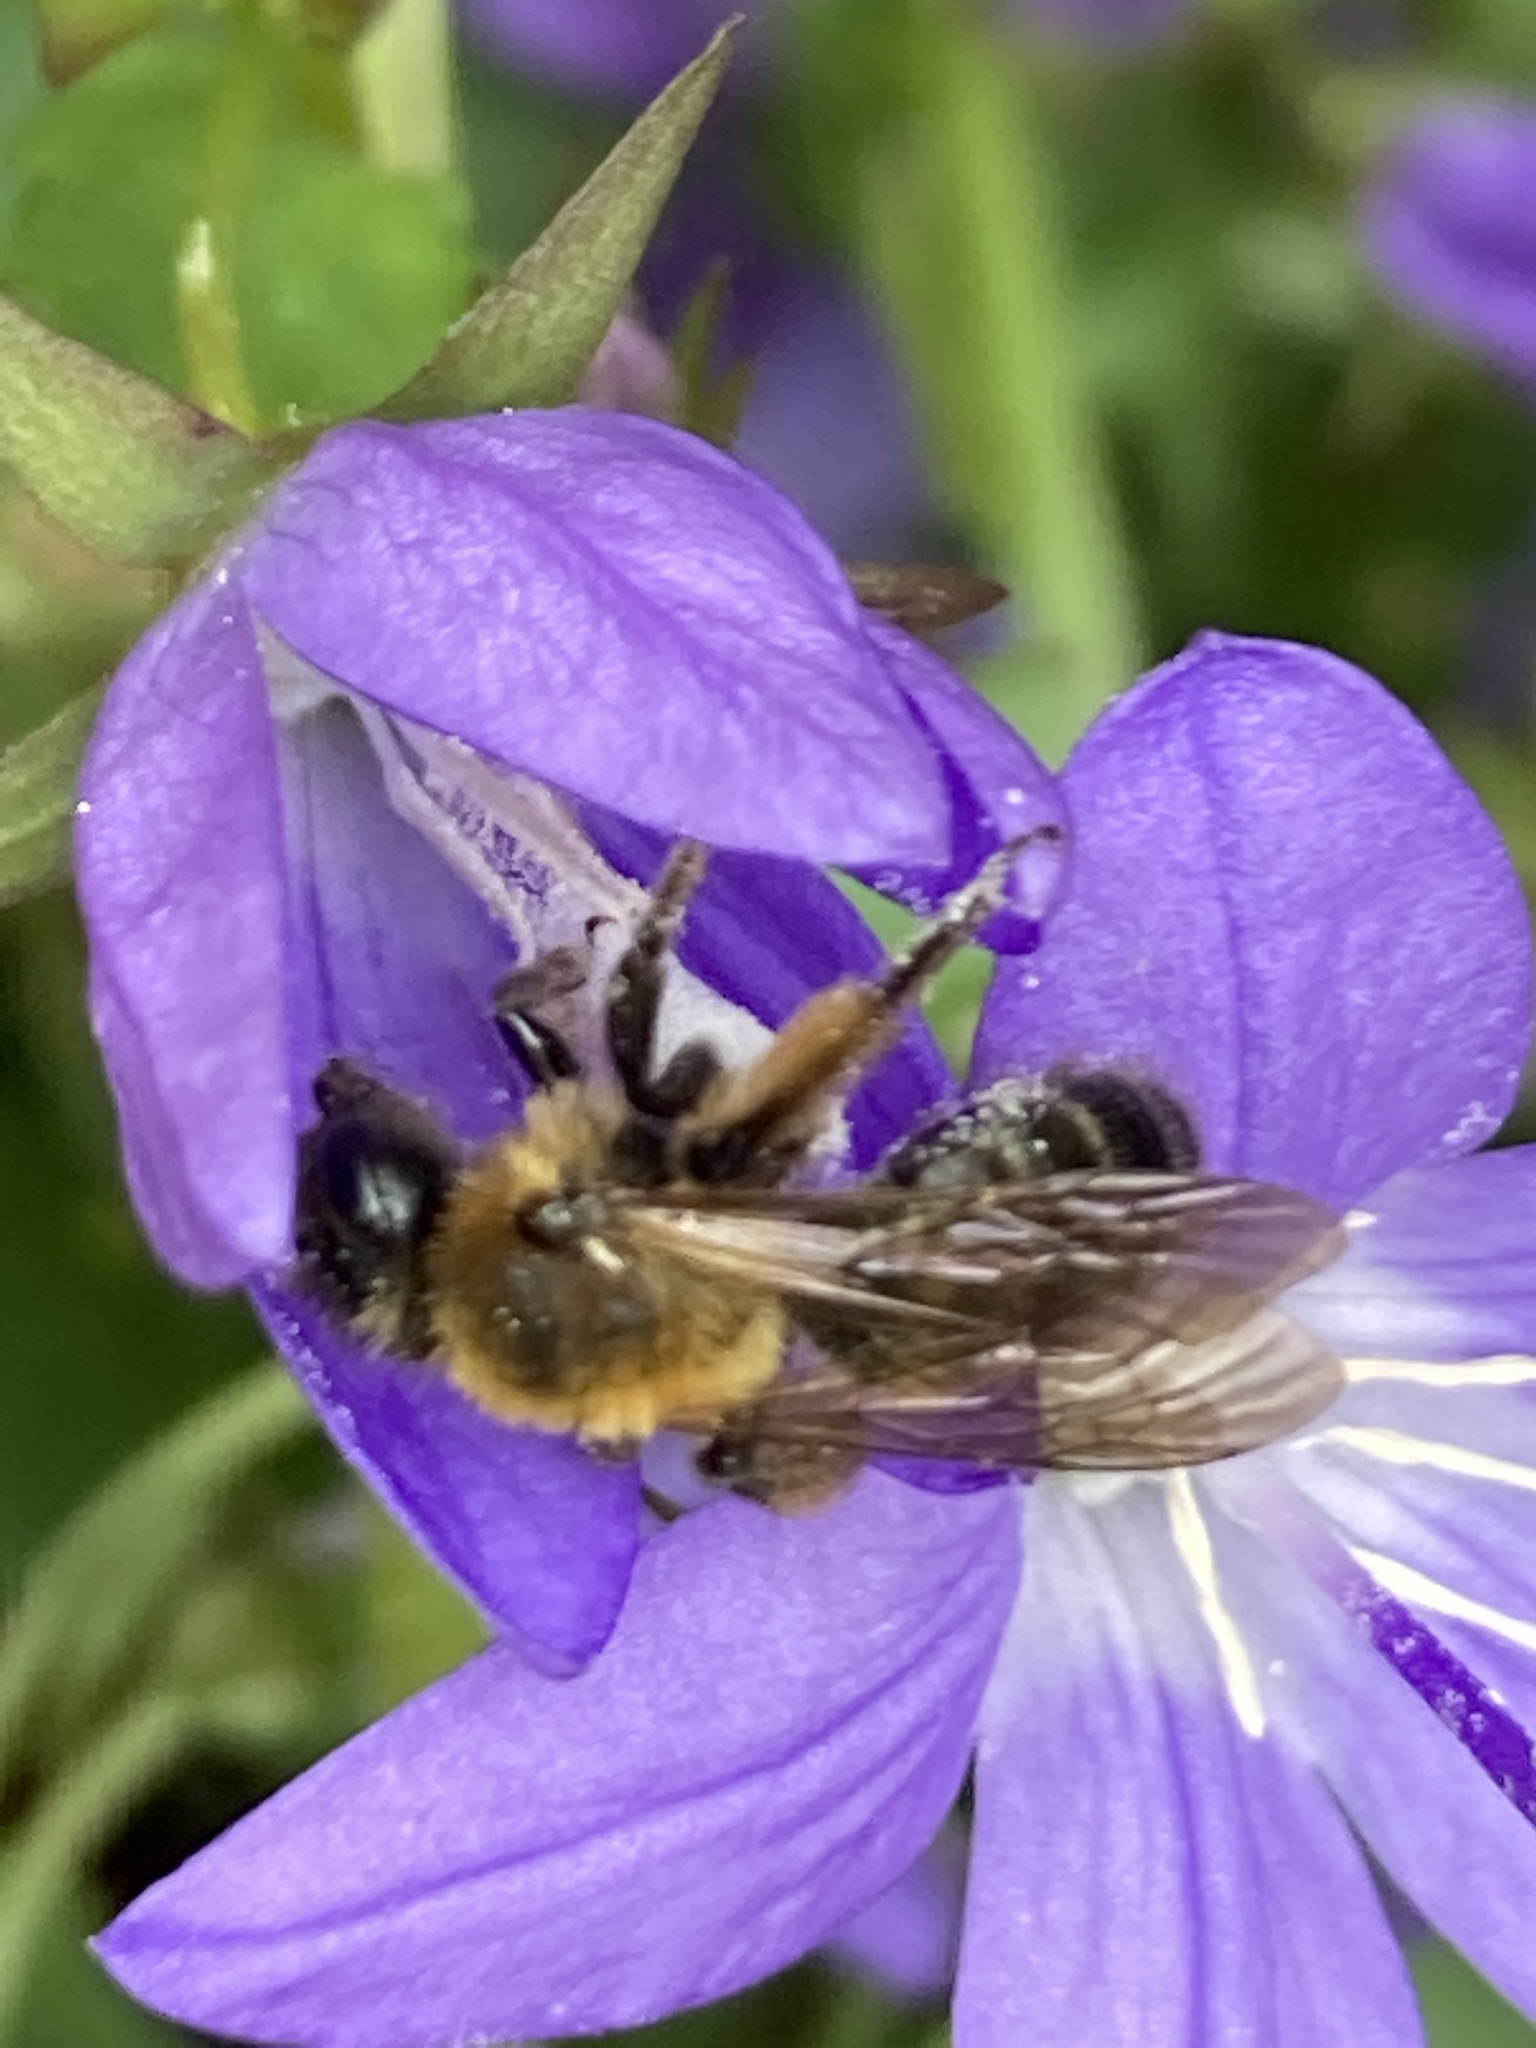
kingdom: Animalia
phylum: Arthropoda
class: Insecta
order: Hymenoptera
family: Andrenidae
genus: Andrena
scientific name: Andrena bicolor
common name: Gwynne's mining bee
